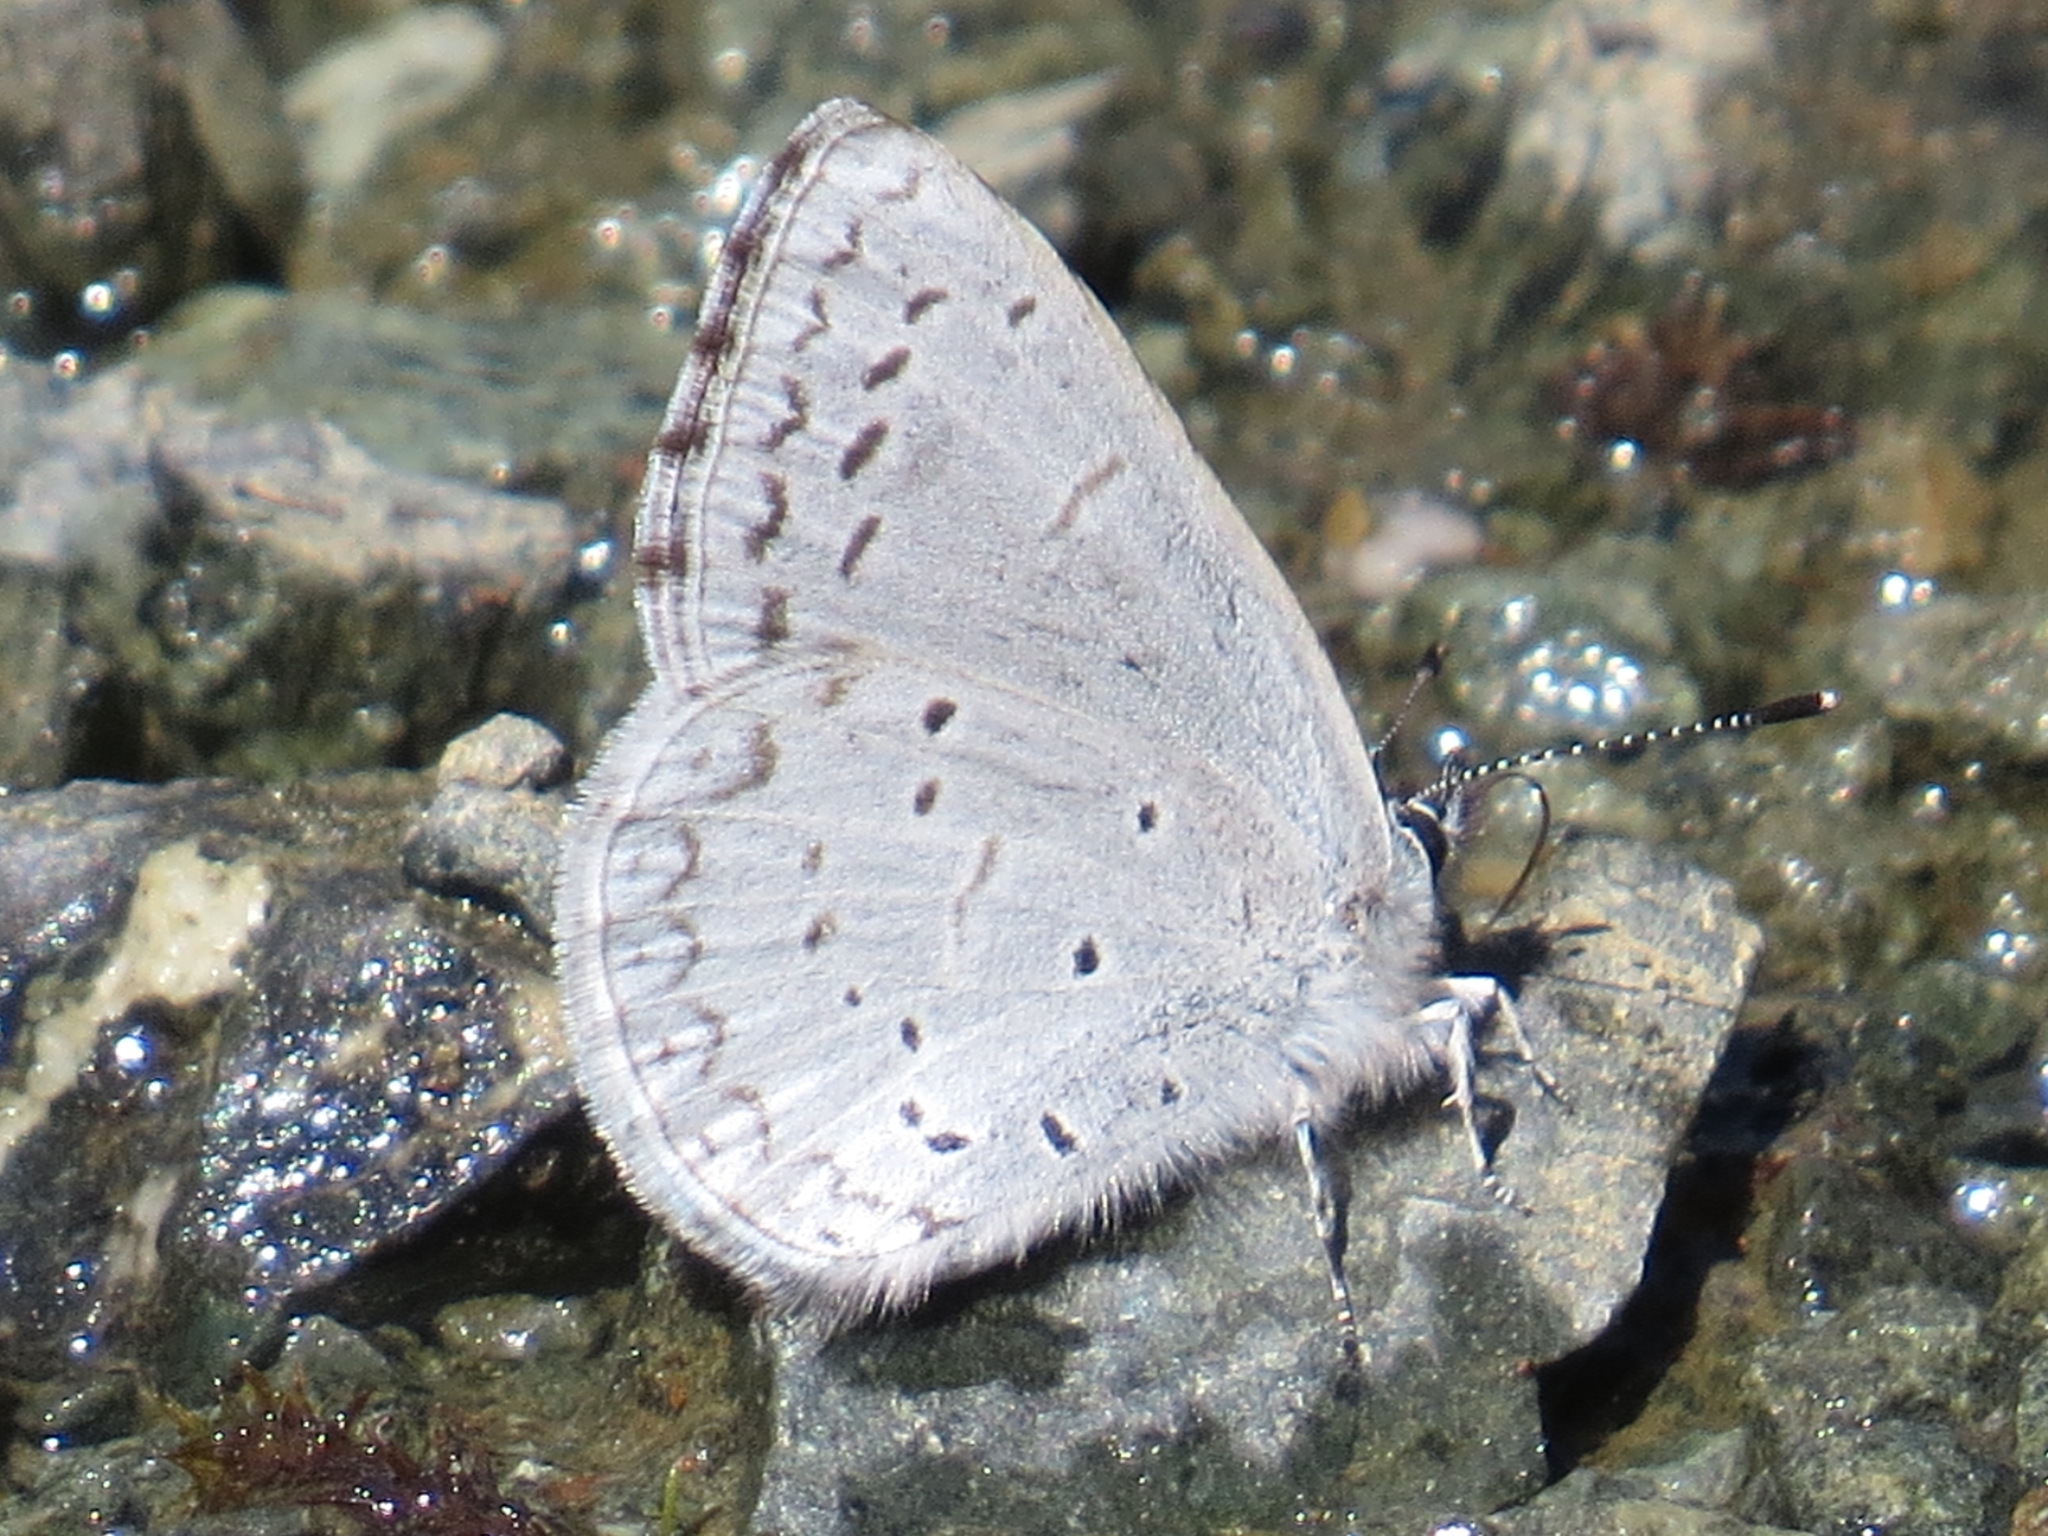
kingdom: Animalia
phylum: Arthropoda
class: Insecta
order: Lepidoptera
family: Lycaenidae
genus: Celastrina
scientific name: Celastrina ladon
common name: Spring azure
